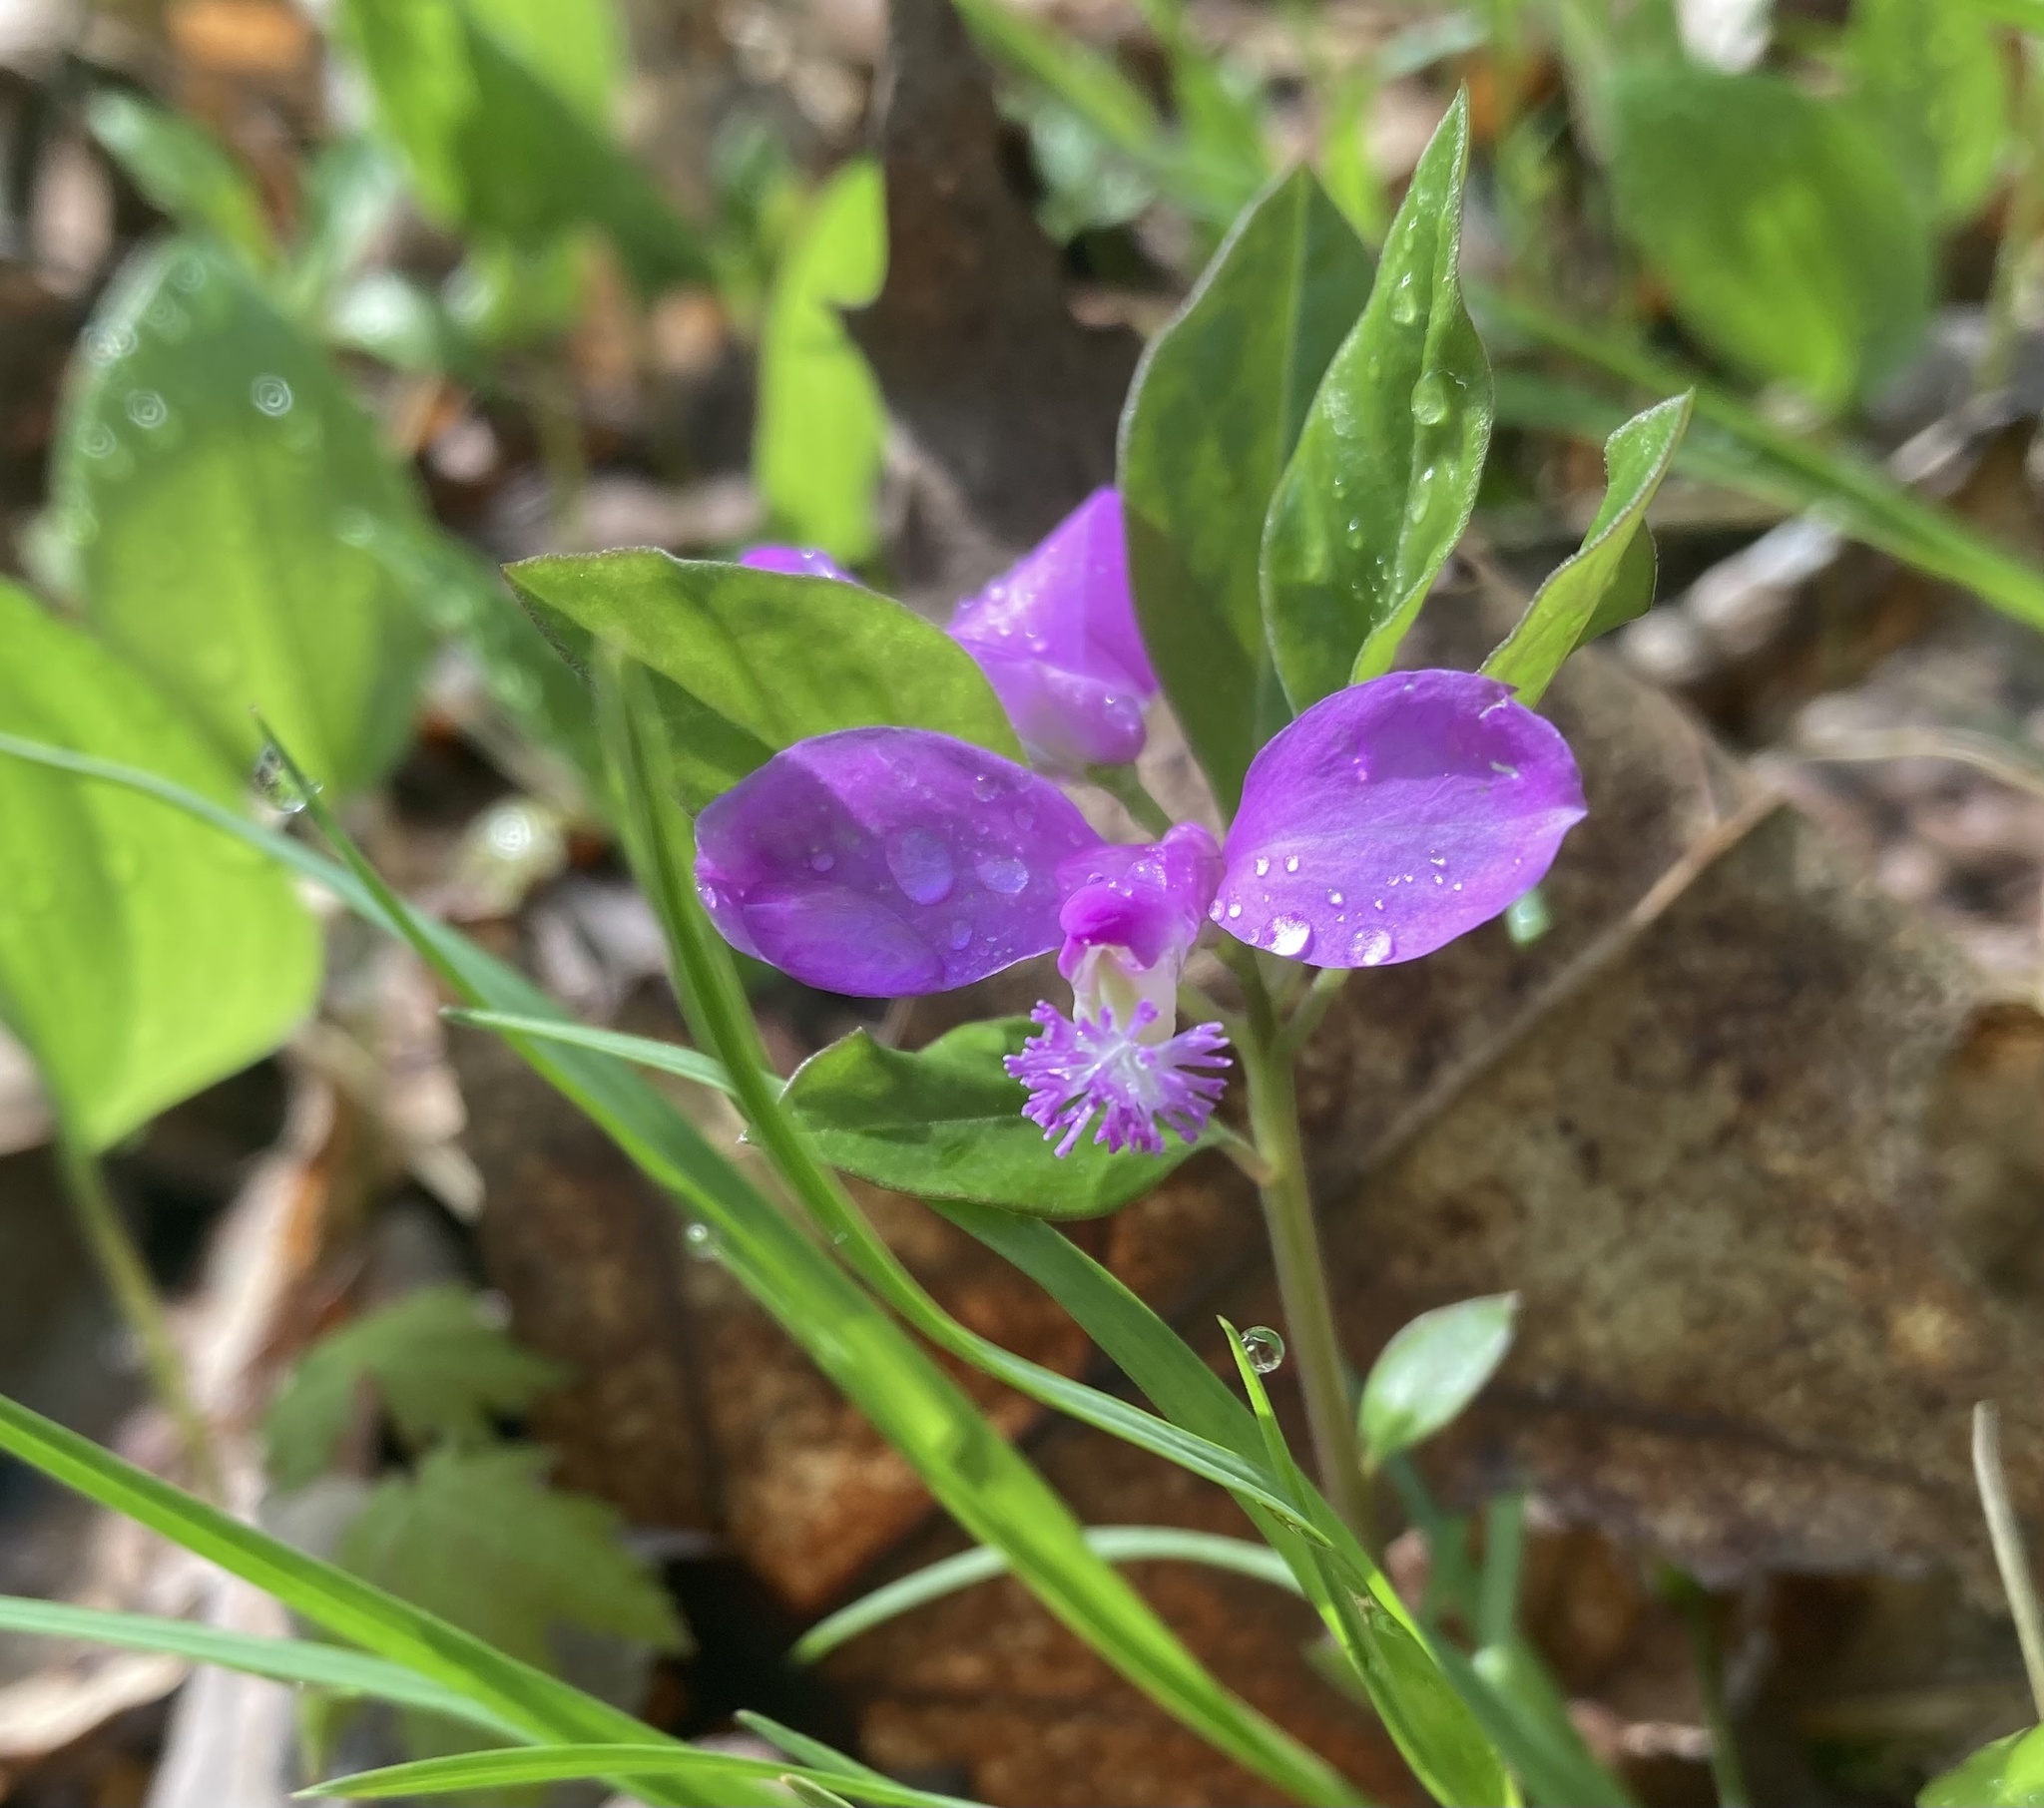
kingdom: Plantae
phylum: Tracheophyta
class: Magnoliopsida
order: Fabales
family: Polygalaceae
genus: Polygaloides
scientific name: Polygaloides paucifolia
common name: Bird-on-the-wing
